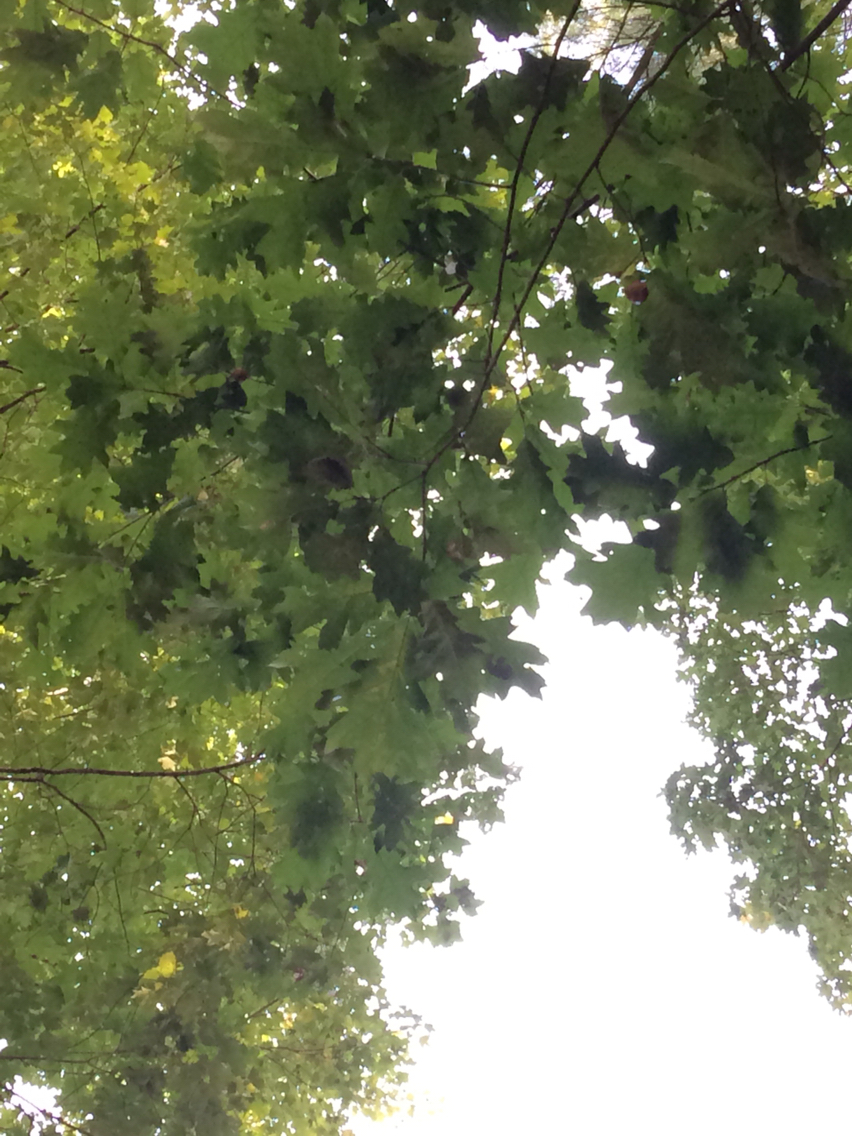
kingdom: Plantae
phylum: Tracheophyta
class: Magnoliopsida
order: Fagales
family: Fagaceae
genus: Quercus
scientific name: Quercus rubra
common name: Red oak
